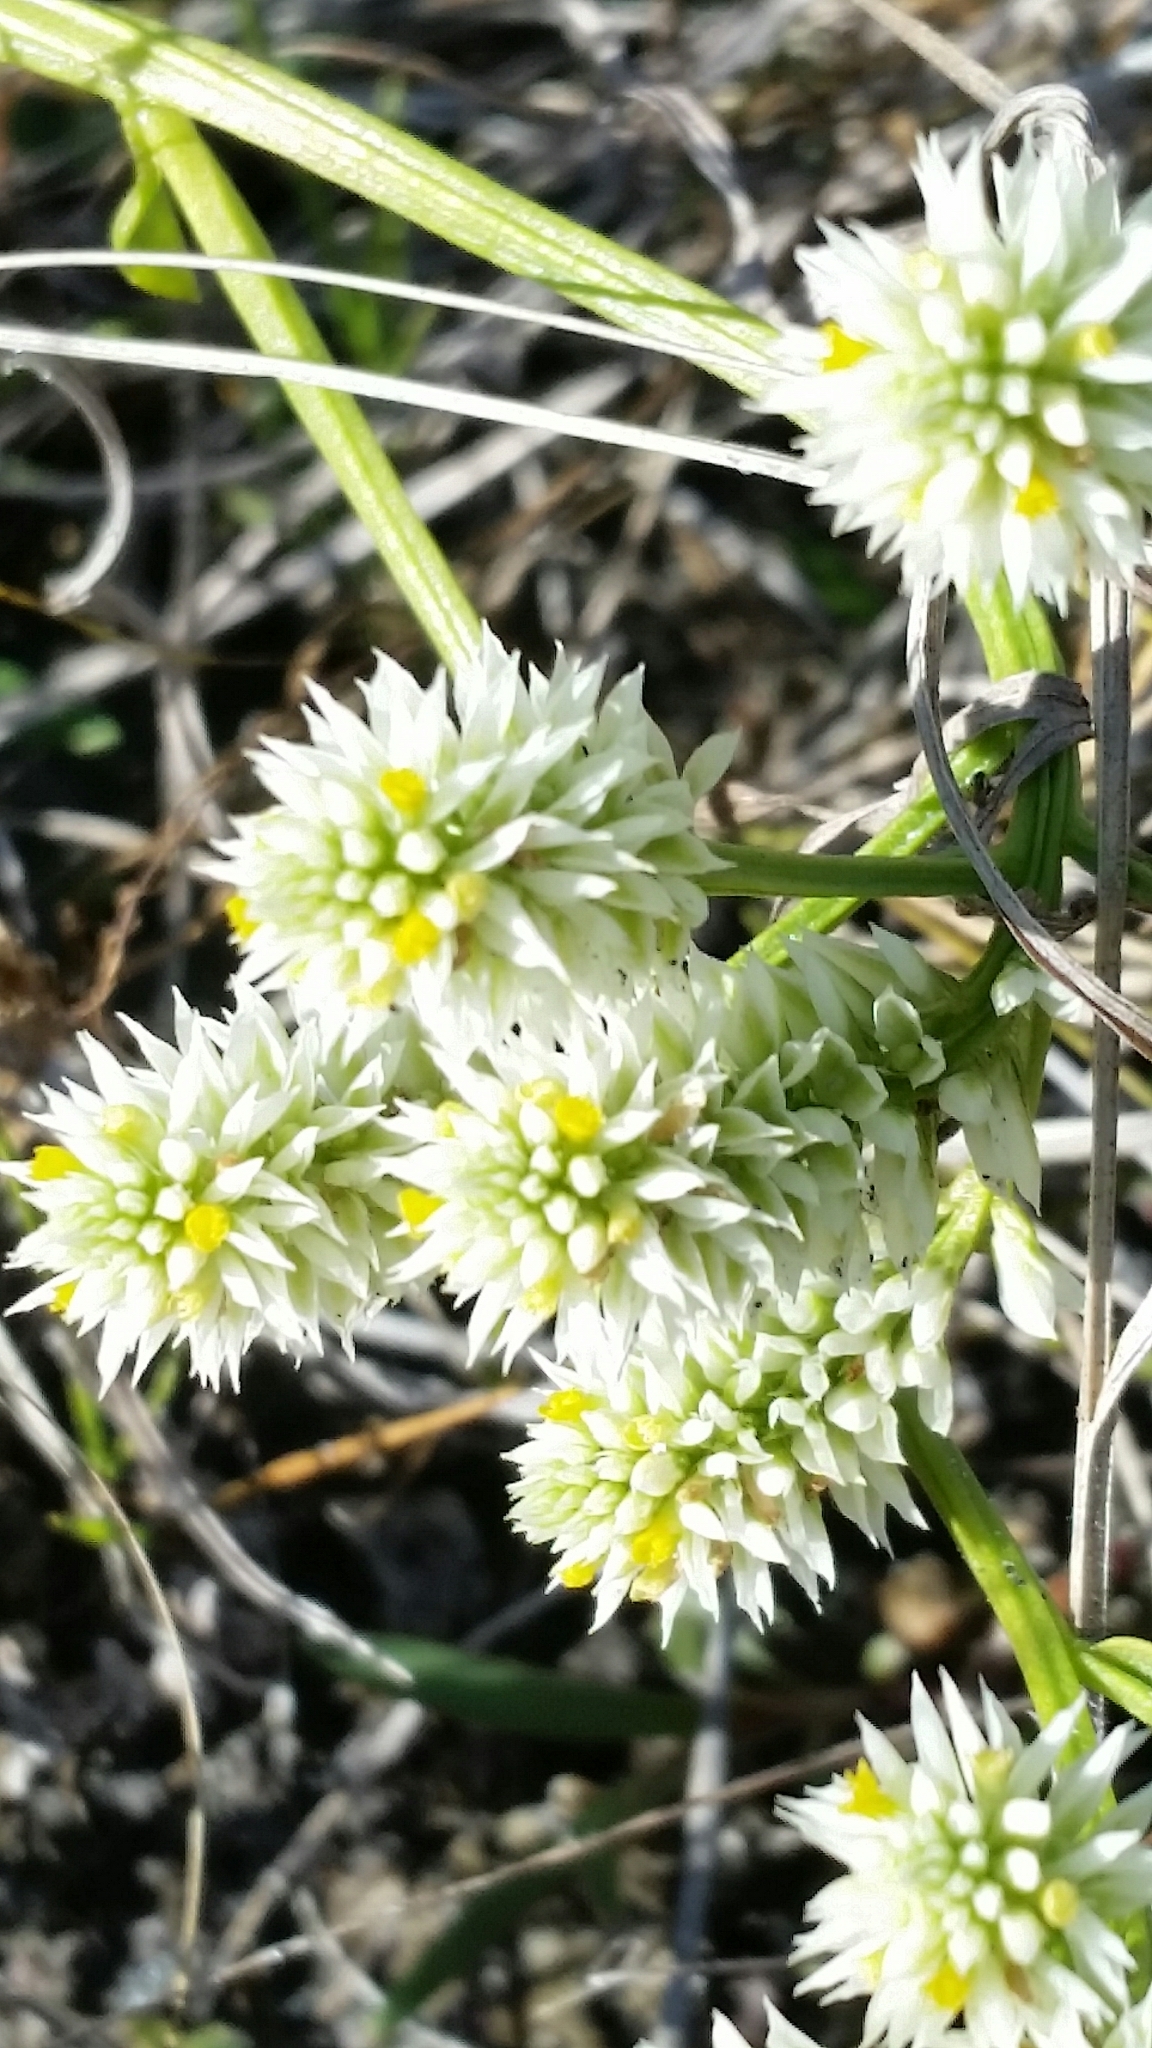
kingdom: Plantae
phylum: Tracheophyta
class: Magnoliopsida
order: Fabales
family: Polygalaceae
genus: Polygala
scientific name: Polygala baldwinii
